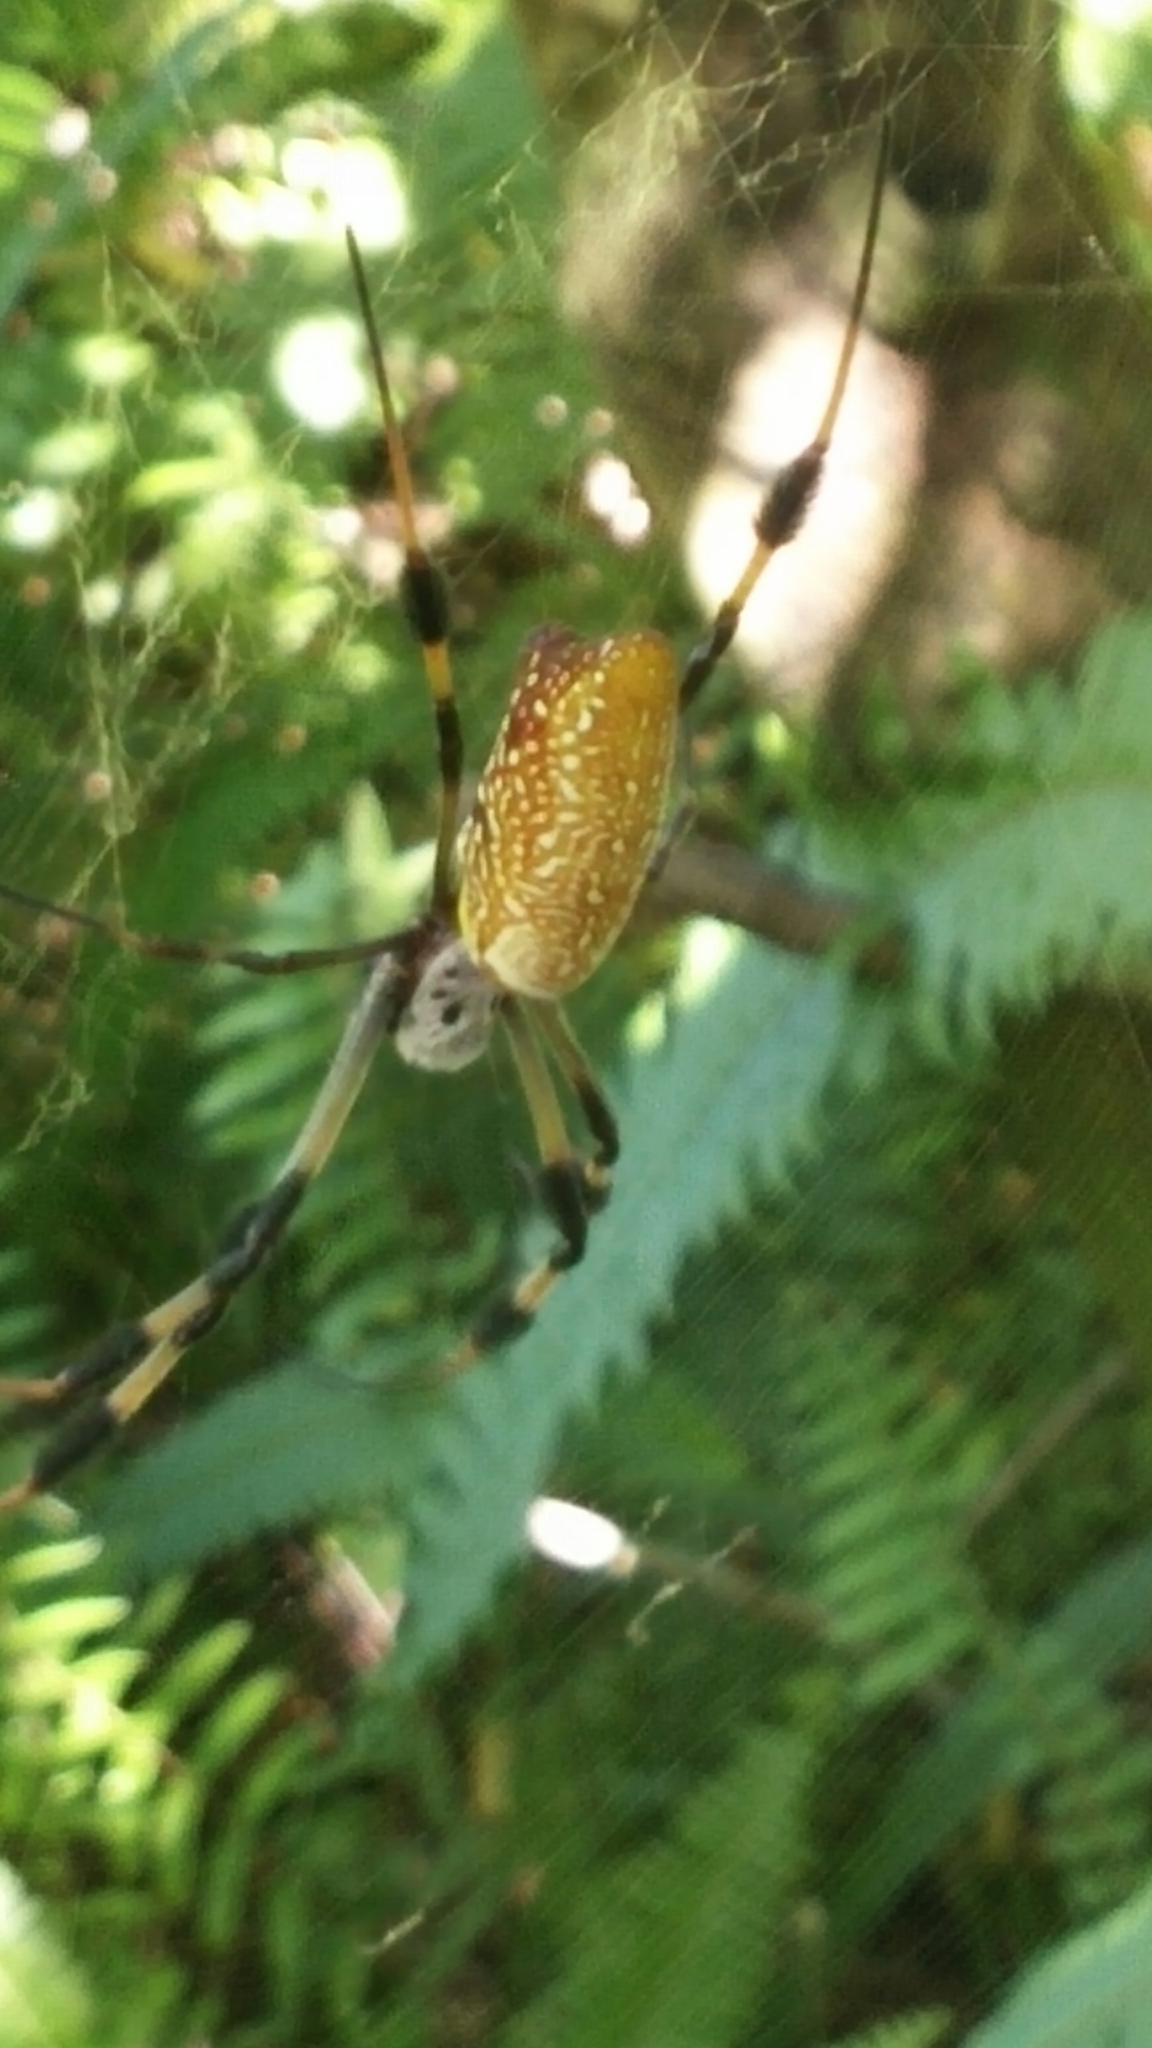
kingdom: Animalia
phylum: Arthropoda
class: Arachnida
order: Araneae
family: Araneidae
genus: Trichonephila
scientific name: Trichonephila clavipes
